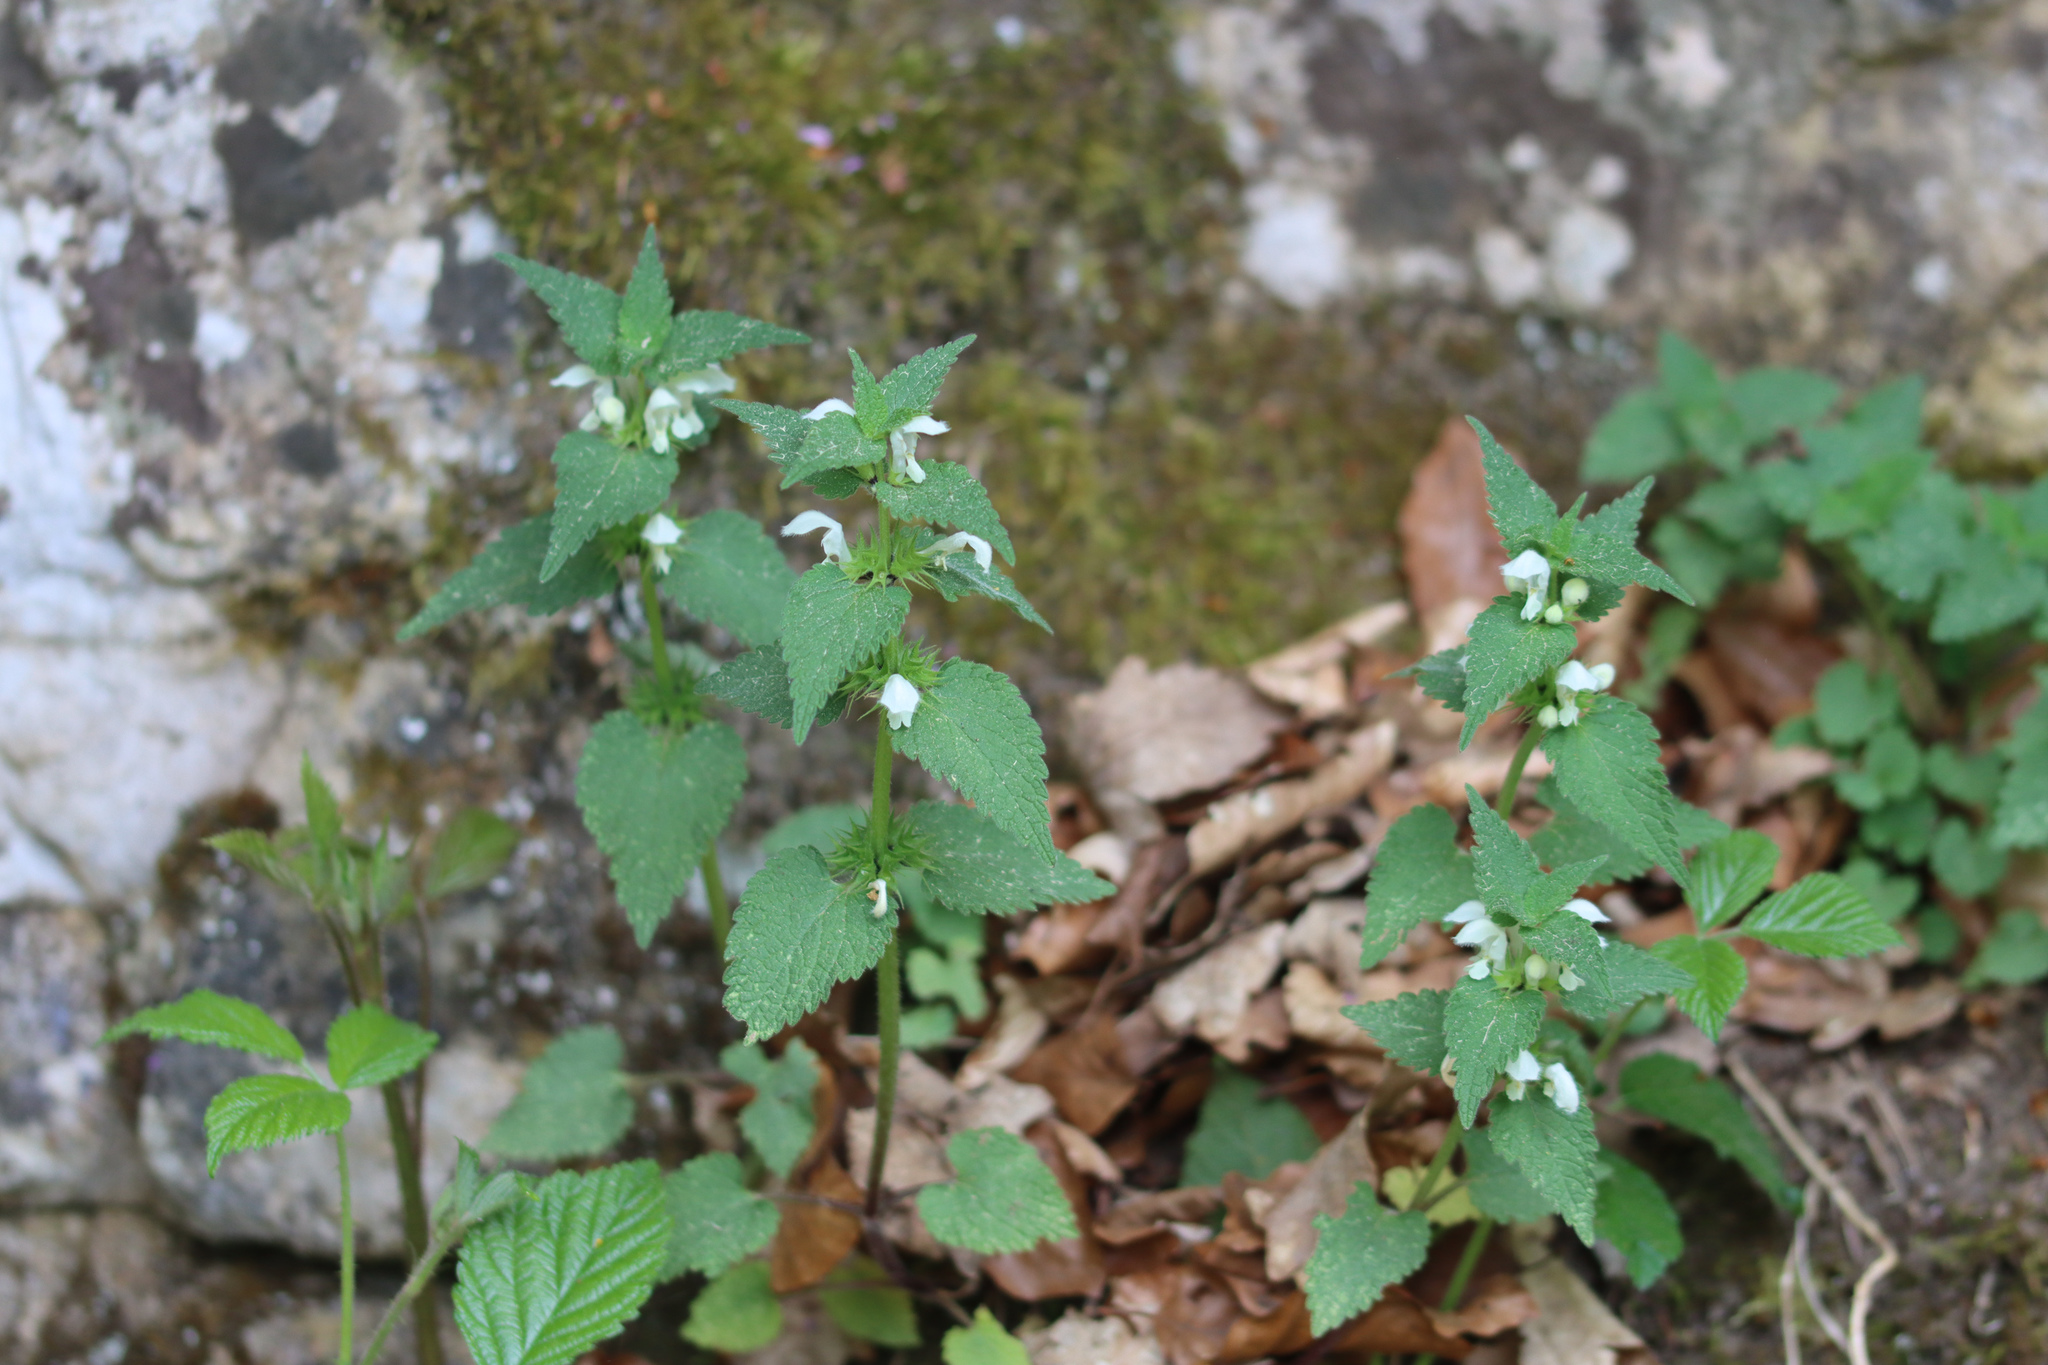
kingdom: Plantae
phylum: Tracheophyta
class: Magnoliopsida
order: Lamiales
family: Lamiaceae
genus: Lamium
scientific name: Lamium album
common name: White dead-nettle
